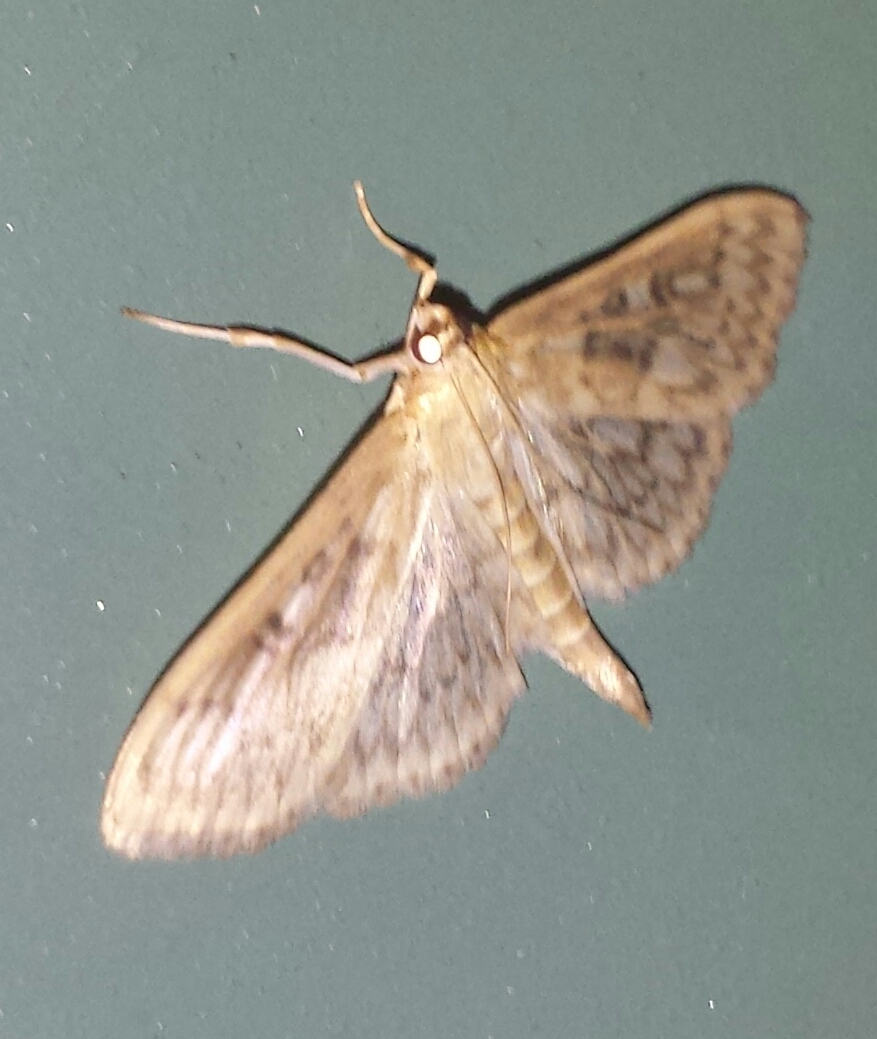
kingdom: Animalia
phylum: Arthropoda
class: Insecta
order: Lepidoptera
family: Crambidae
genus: Herpetogramma
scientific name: Herpetogramma pertextalis
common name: Bold-feathered grass moth
